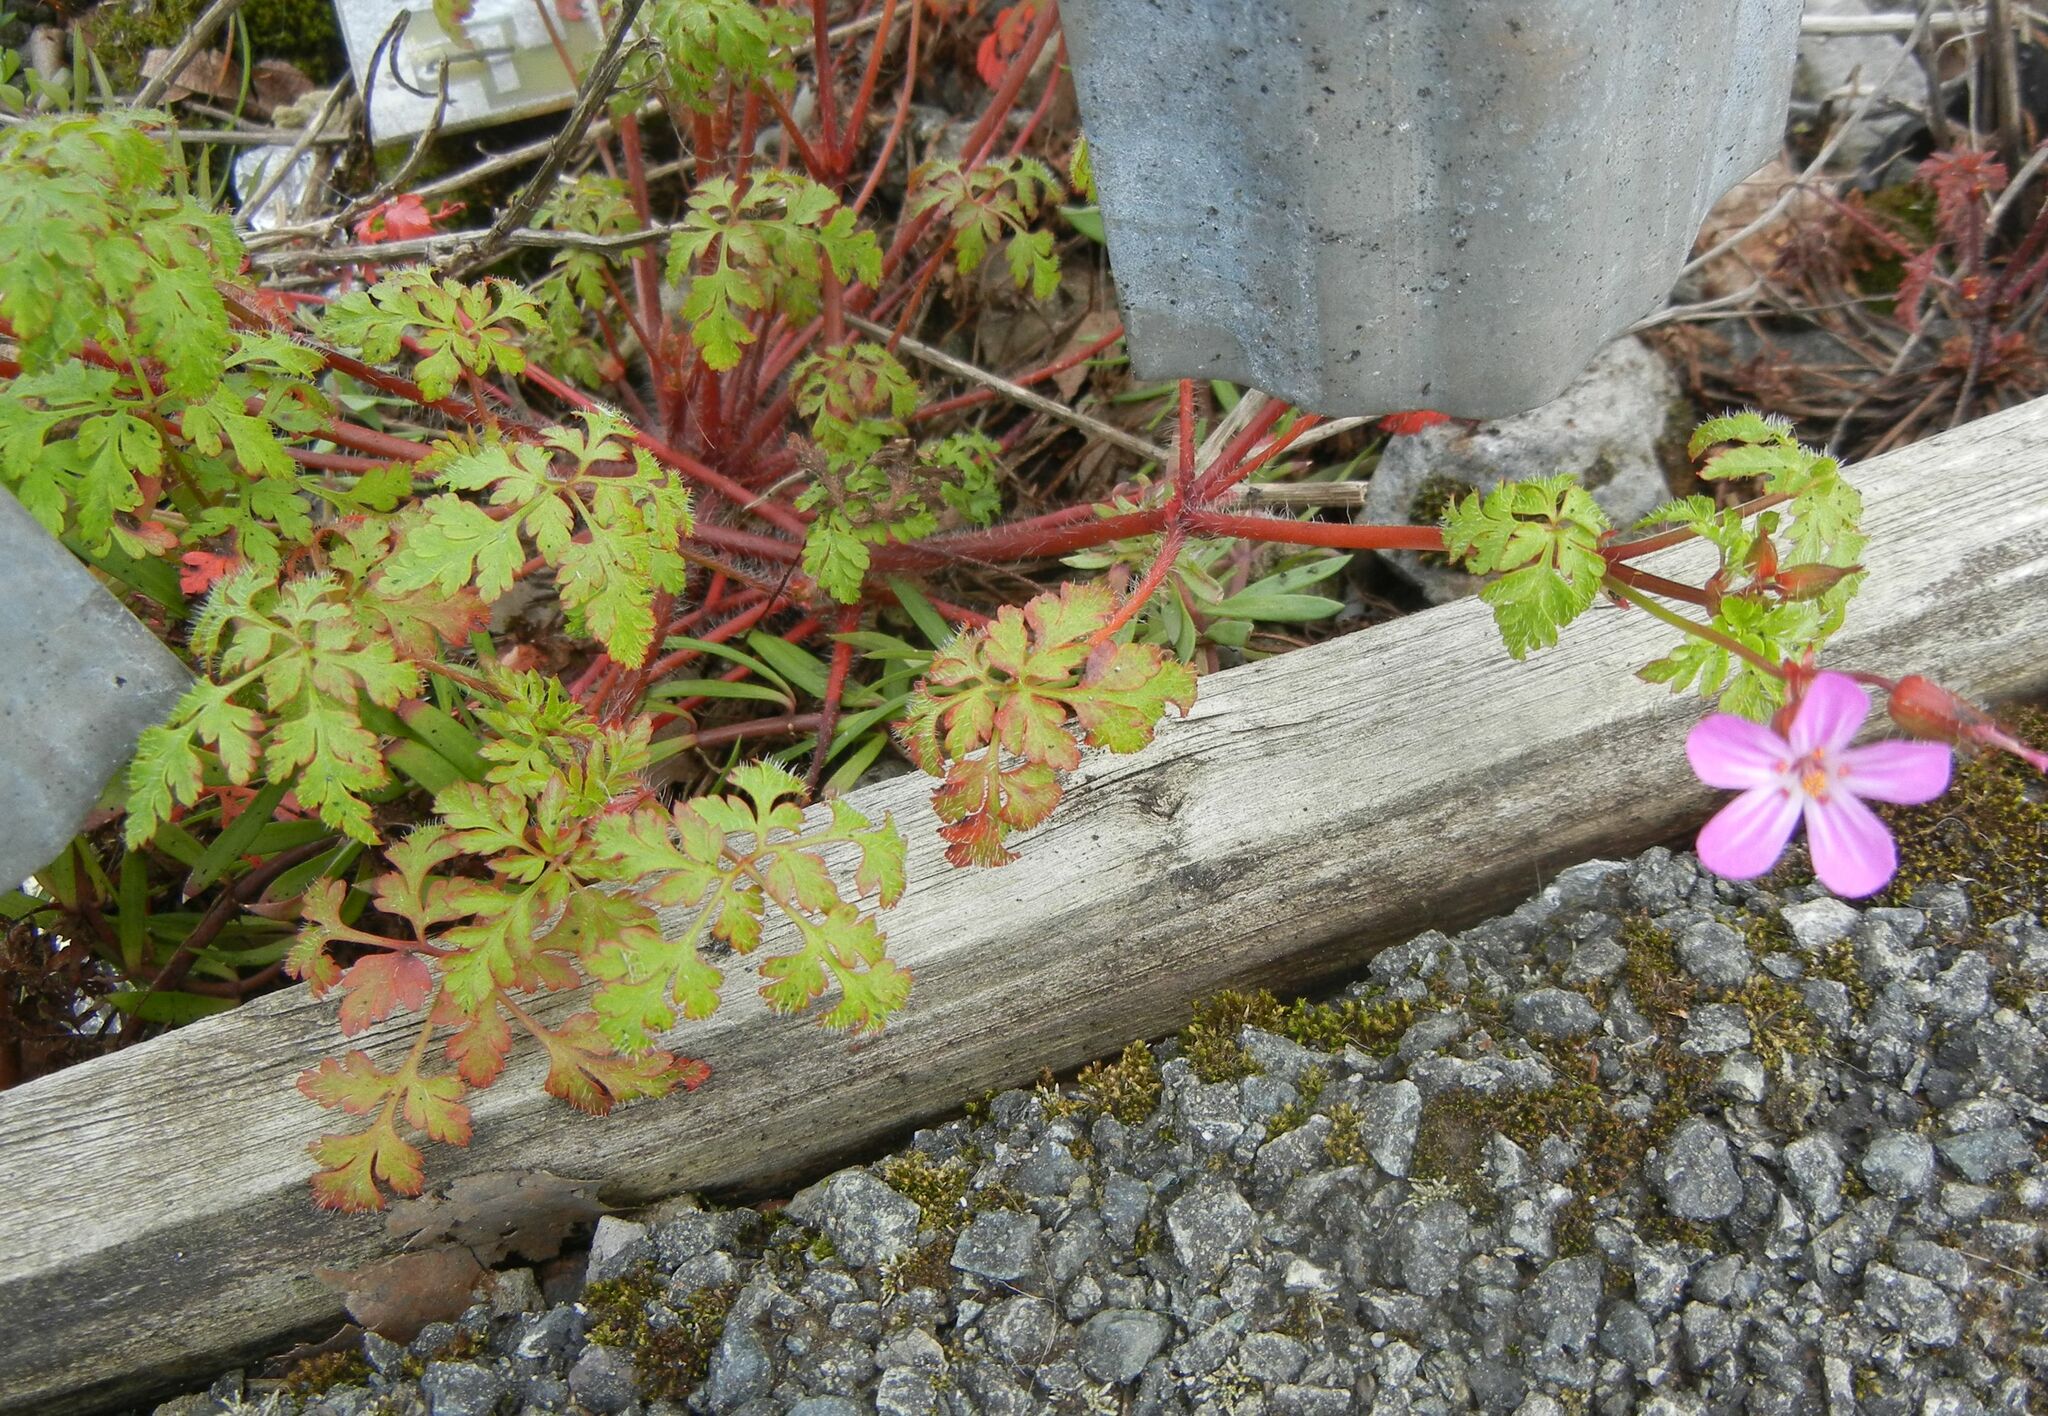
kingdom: Plantae
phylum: Tracheophyta
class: Magnoliopsida
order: Geraniales
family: Geraniaceae
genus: Geranium
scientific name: Geranium robertianum
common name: Herb-robert
